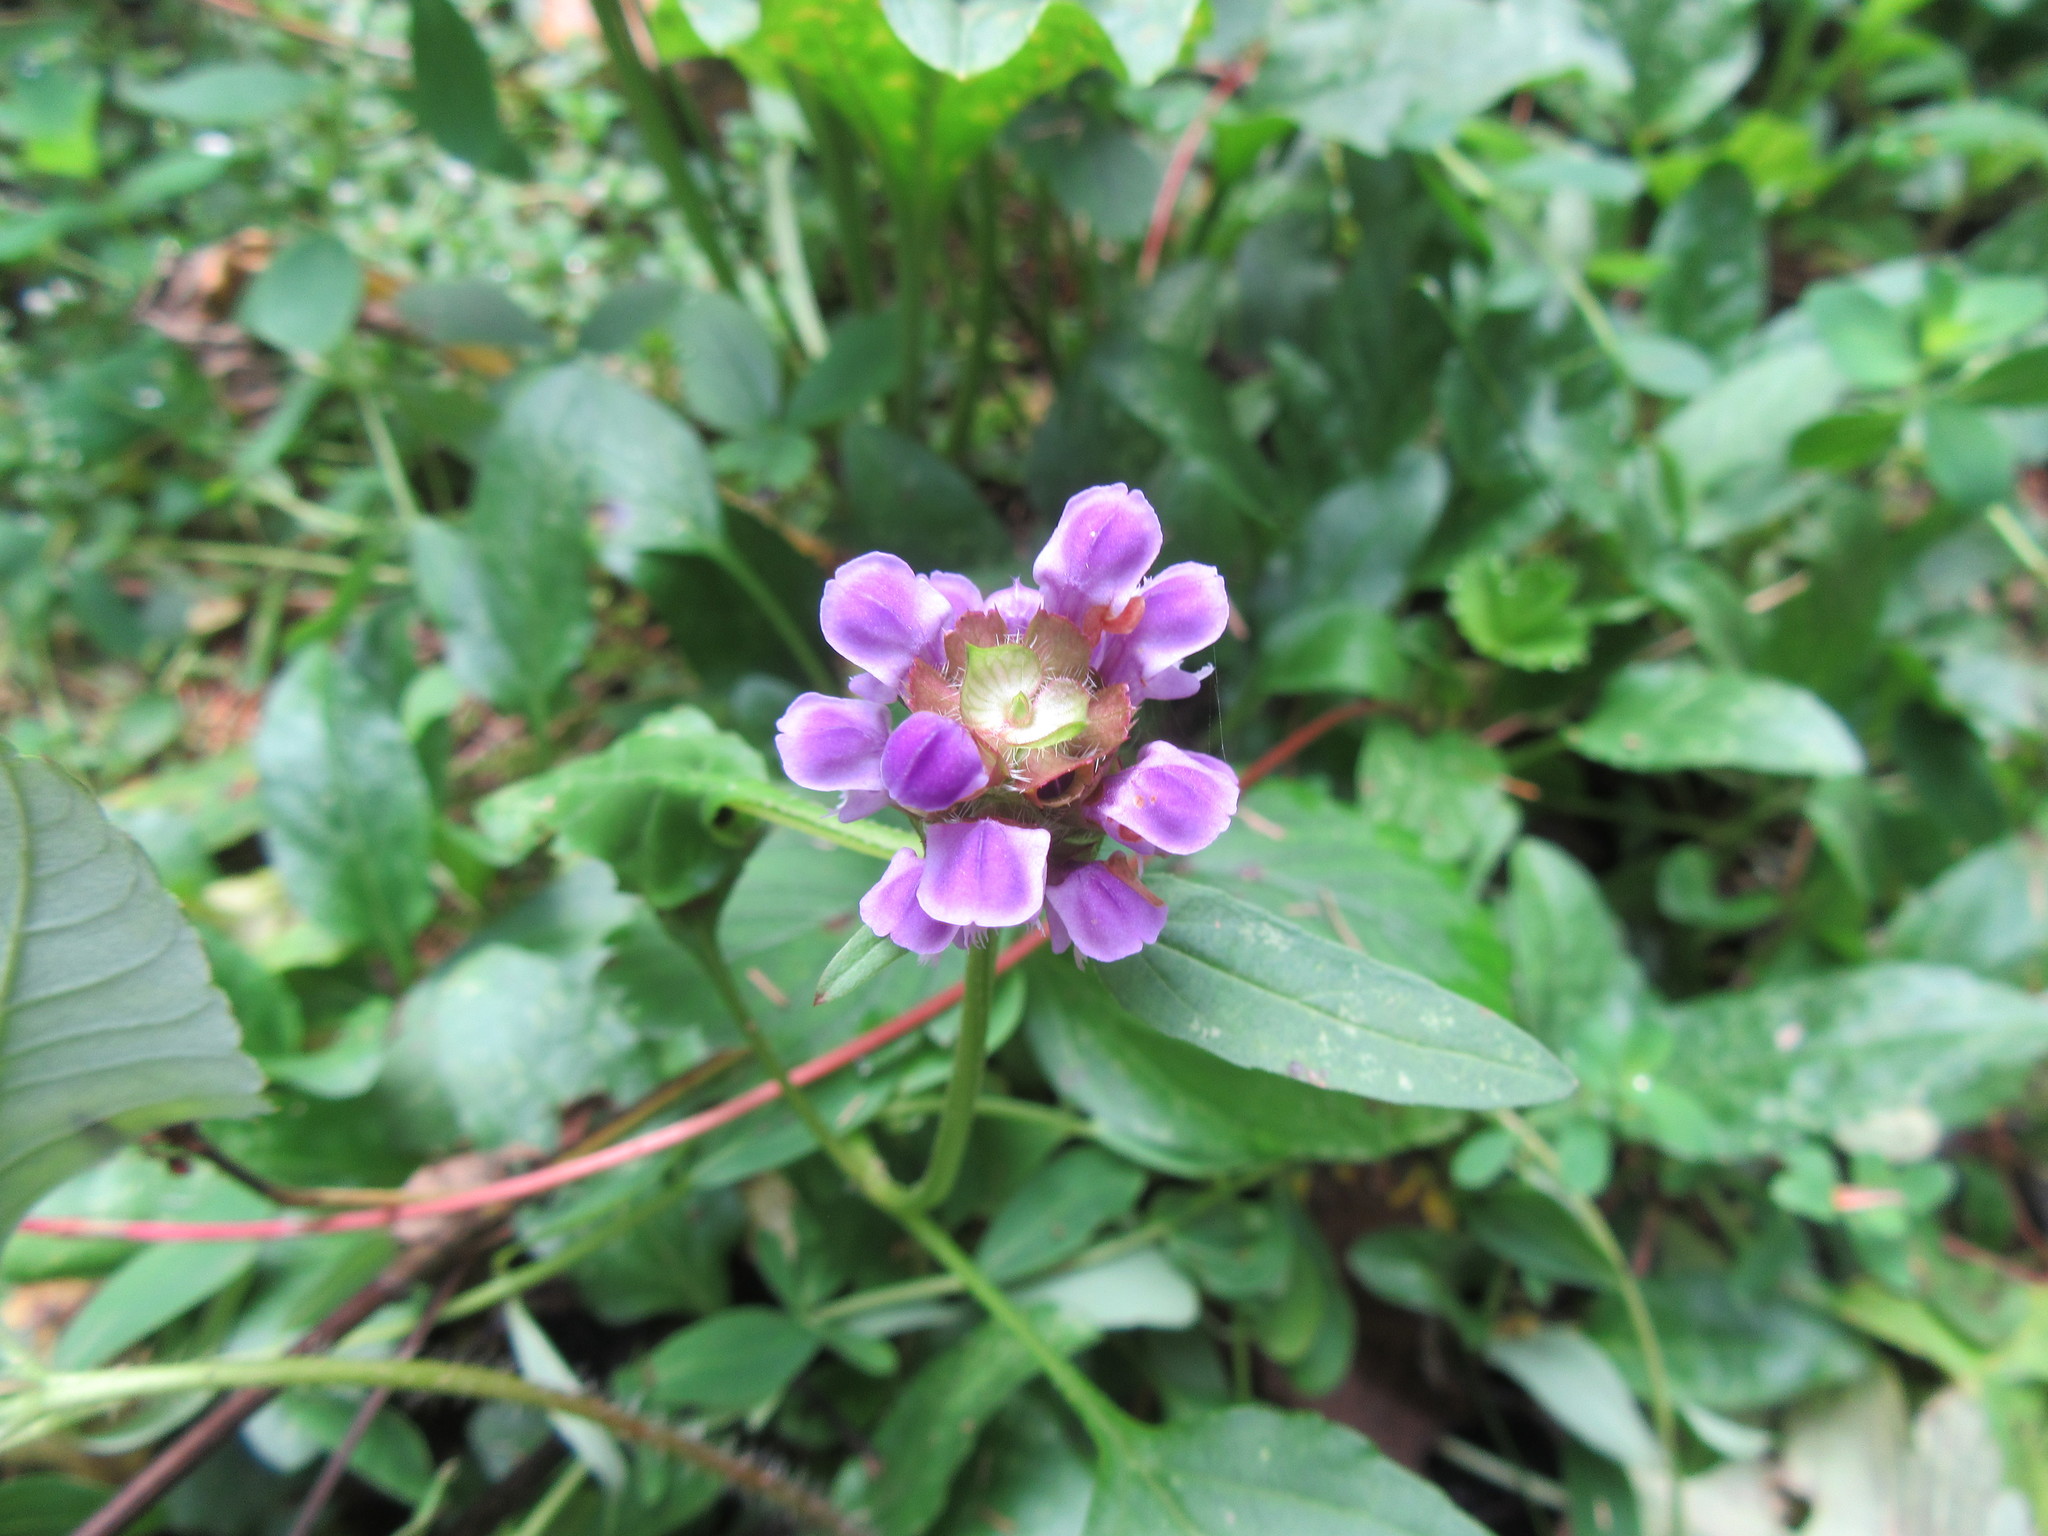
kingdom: Plantae
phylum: Tracheophyta
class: Magnoliopsida
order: Lamiales
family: Lamiaceae
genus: Prunella
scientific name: Prunella vulgaris
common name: Heal-all
